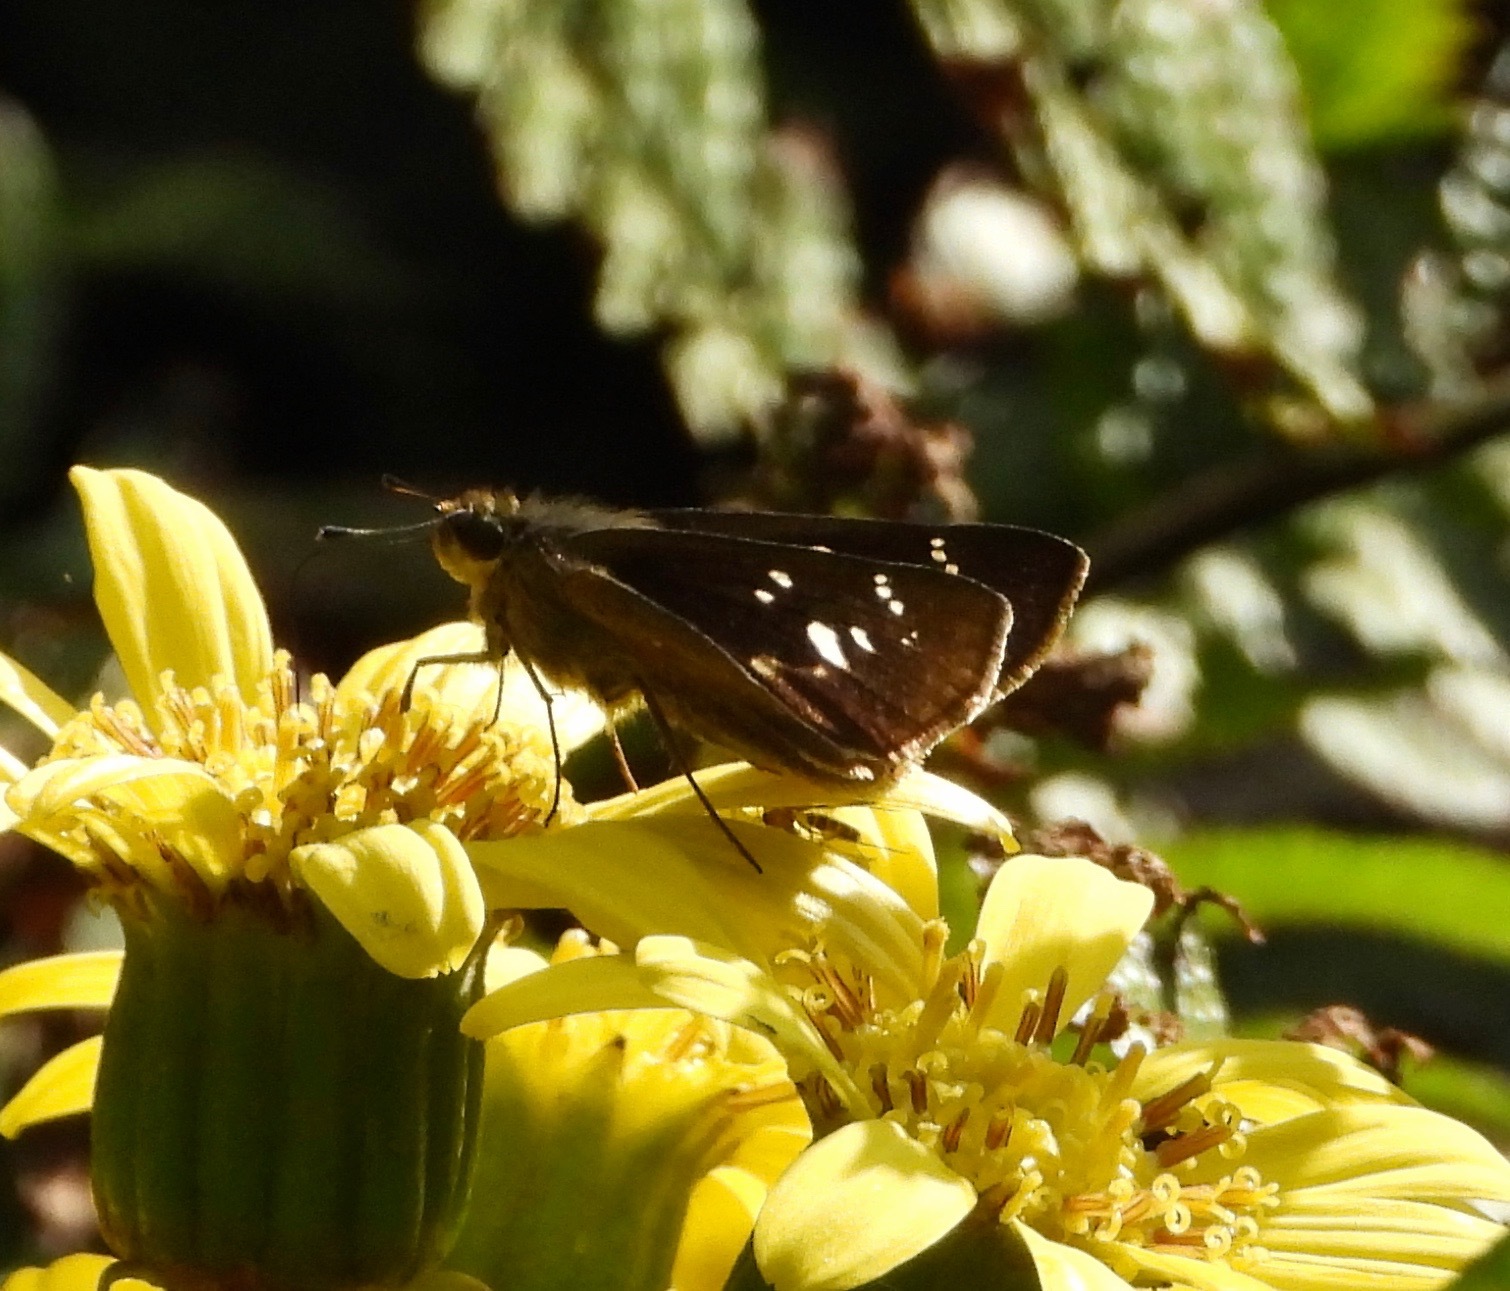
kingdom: Animalia
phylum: Arthropoda
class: Insecta
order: Lepidoptera
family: Hesperiidae
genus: Pelopidas
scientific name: Pelopidas mathias
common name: Black-branded swift
